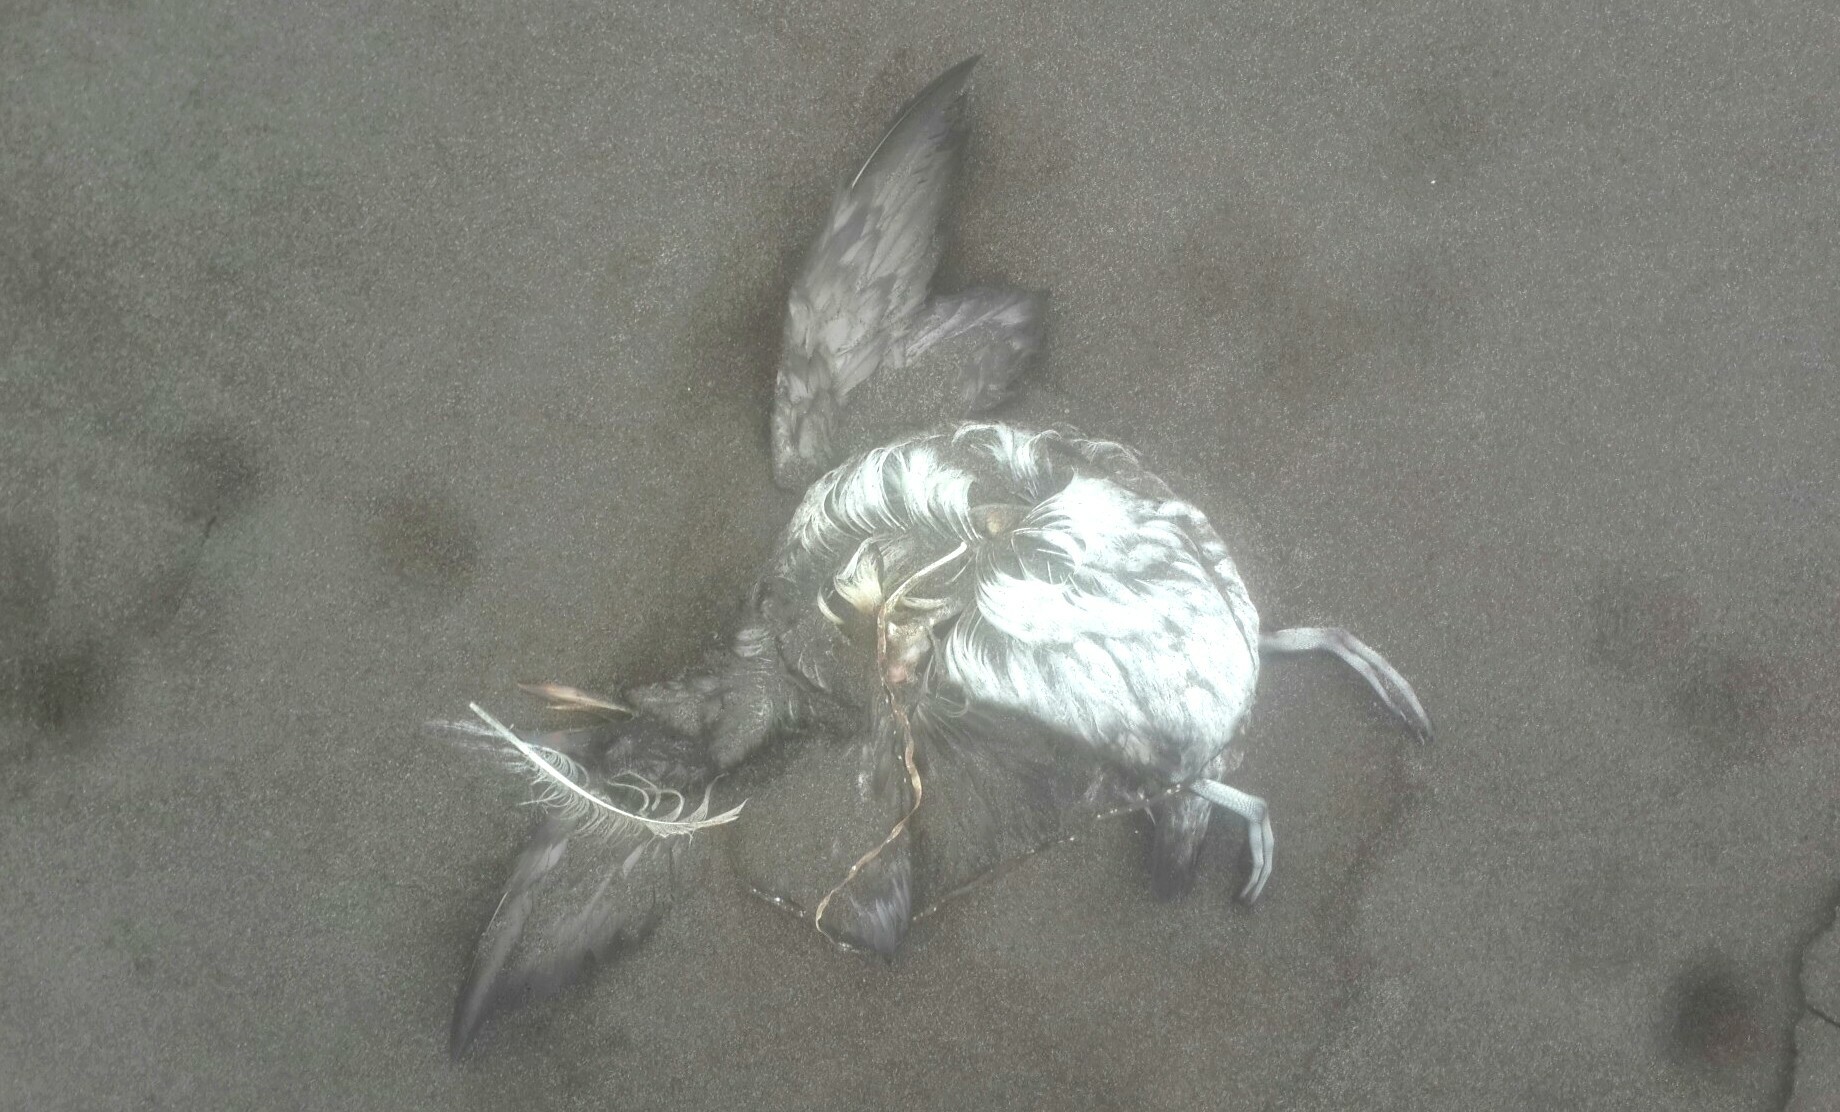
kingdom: Animalia
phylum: Chordata
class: Aves
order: Charadriiformes
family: Alcidae
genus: Cerorhinca
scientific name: Cerorhinca monocerata
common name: Rhinoceros auklet
